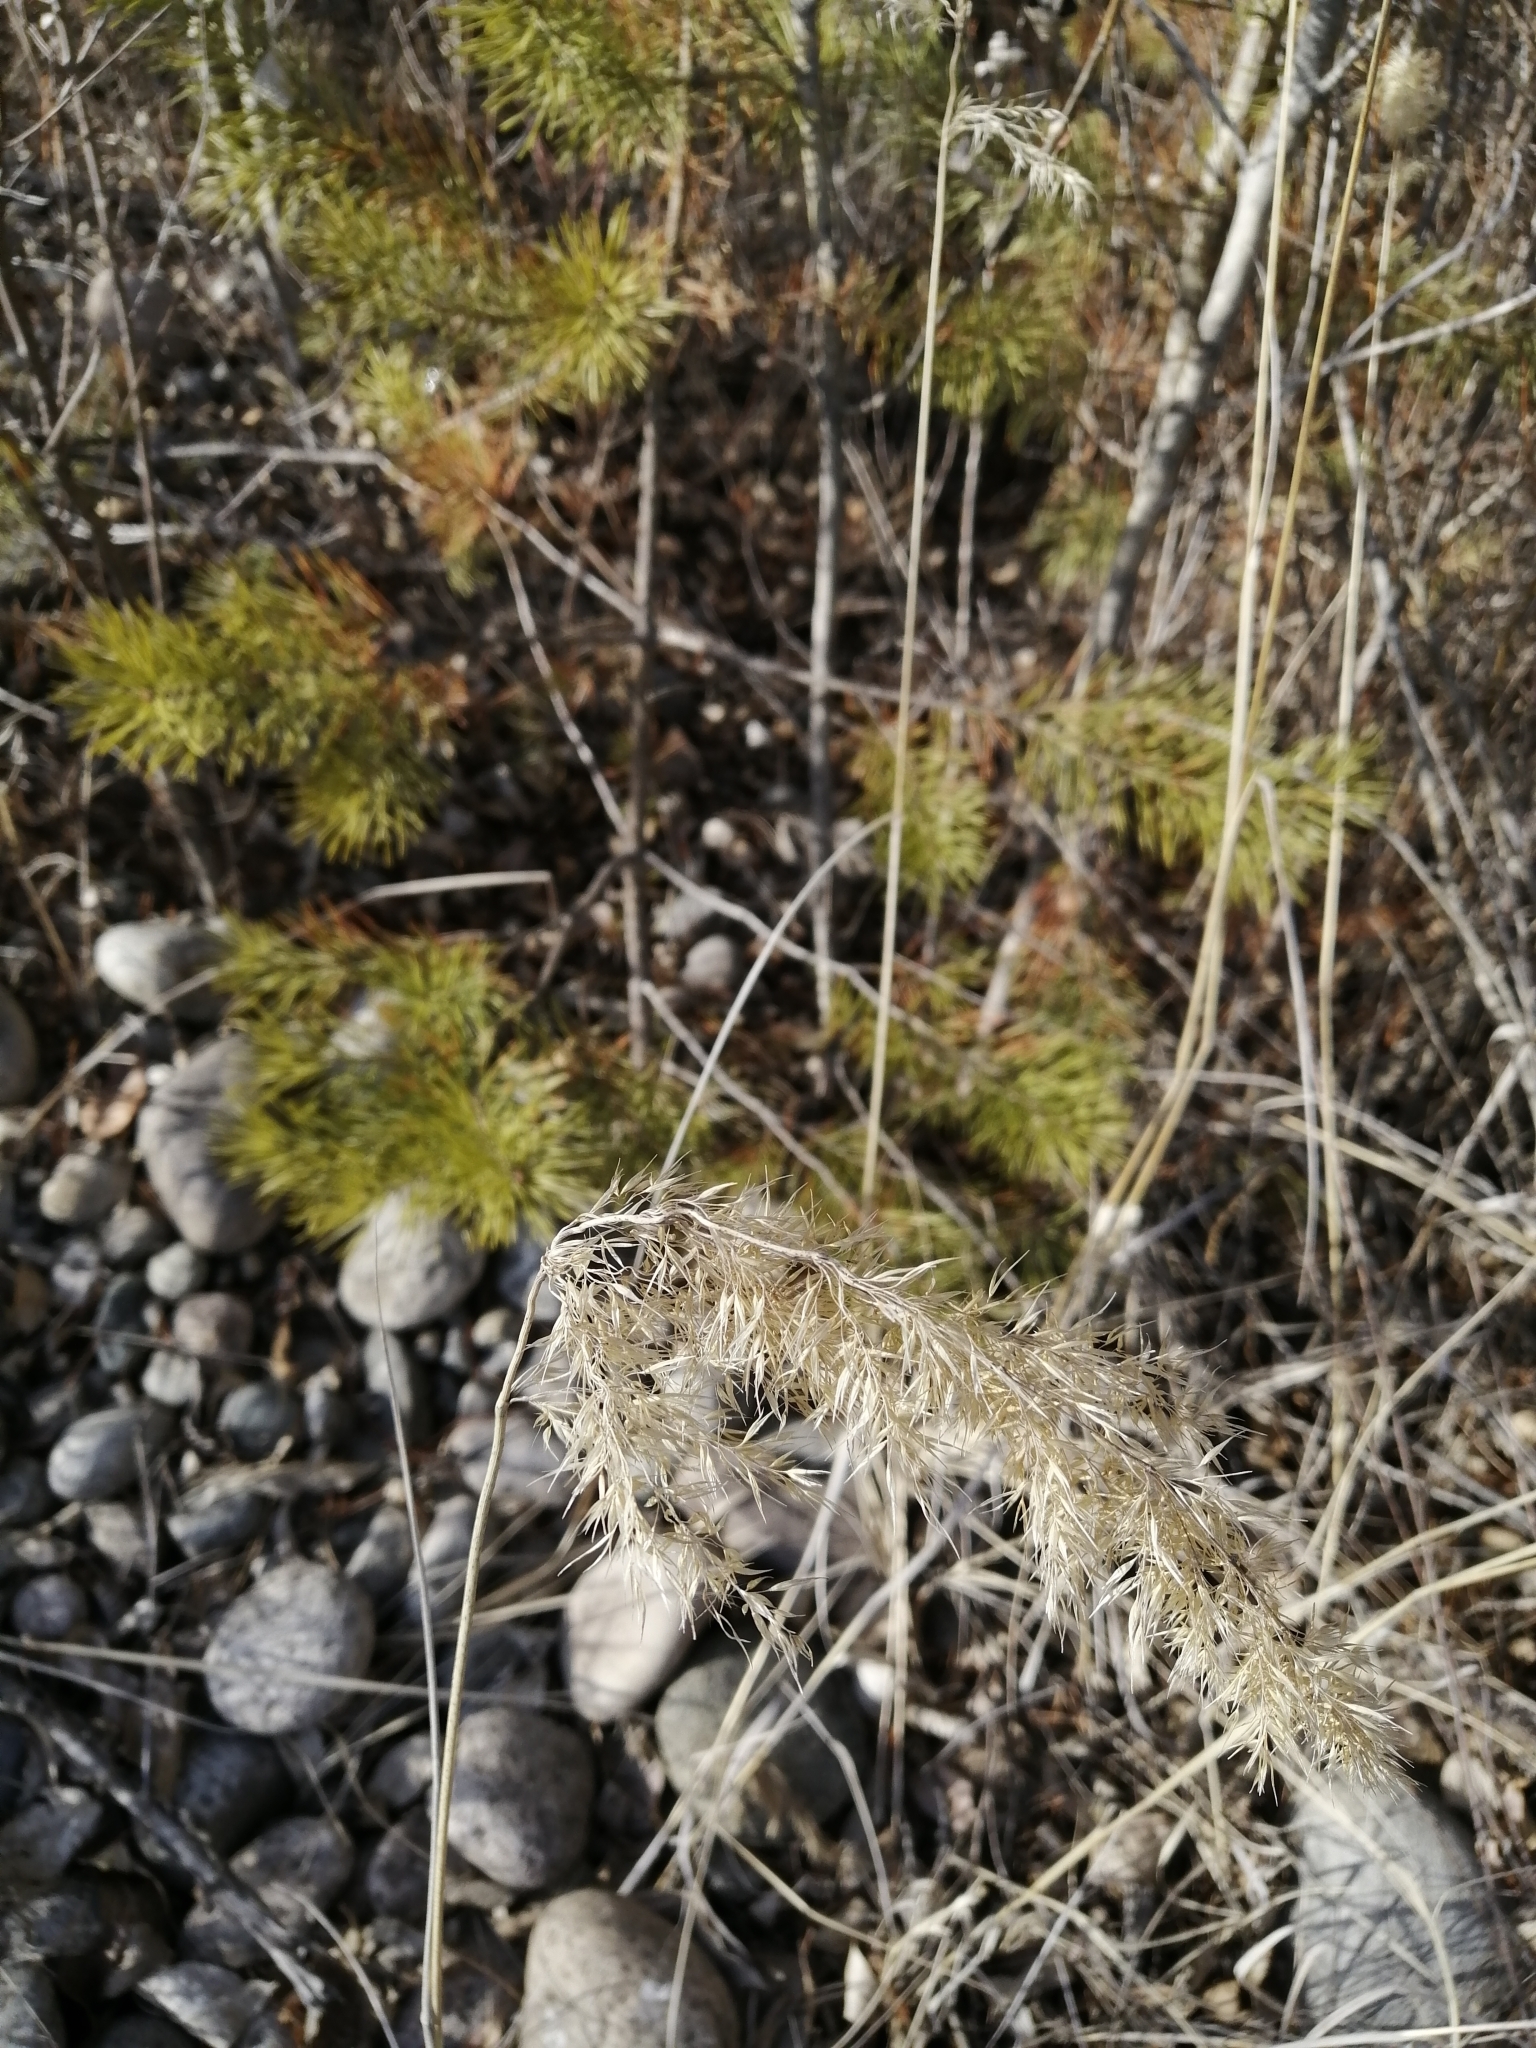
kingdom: Plantae
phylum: Tracheophyta
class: Pinopsida
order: Pinales
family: Pinaceae
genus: Pinus
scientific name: Pinus sylvestris
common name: Scots pine
